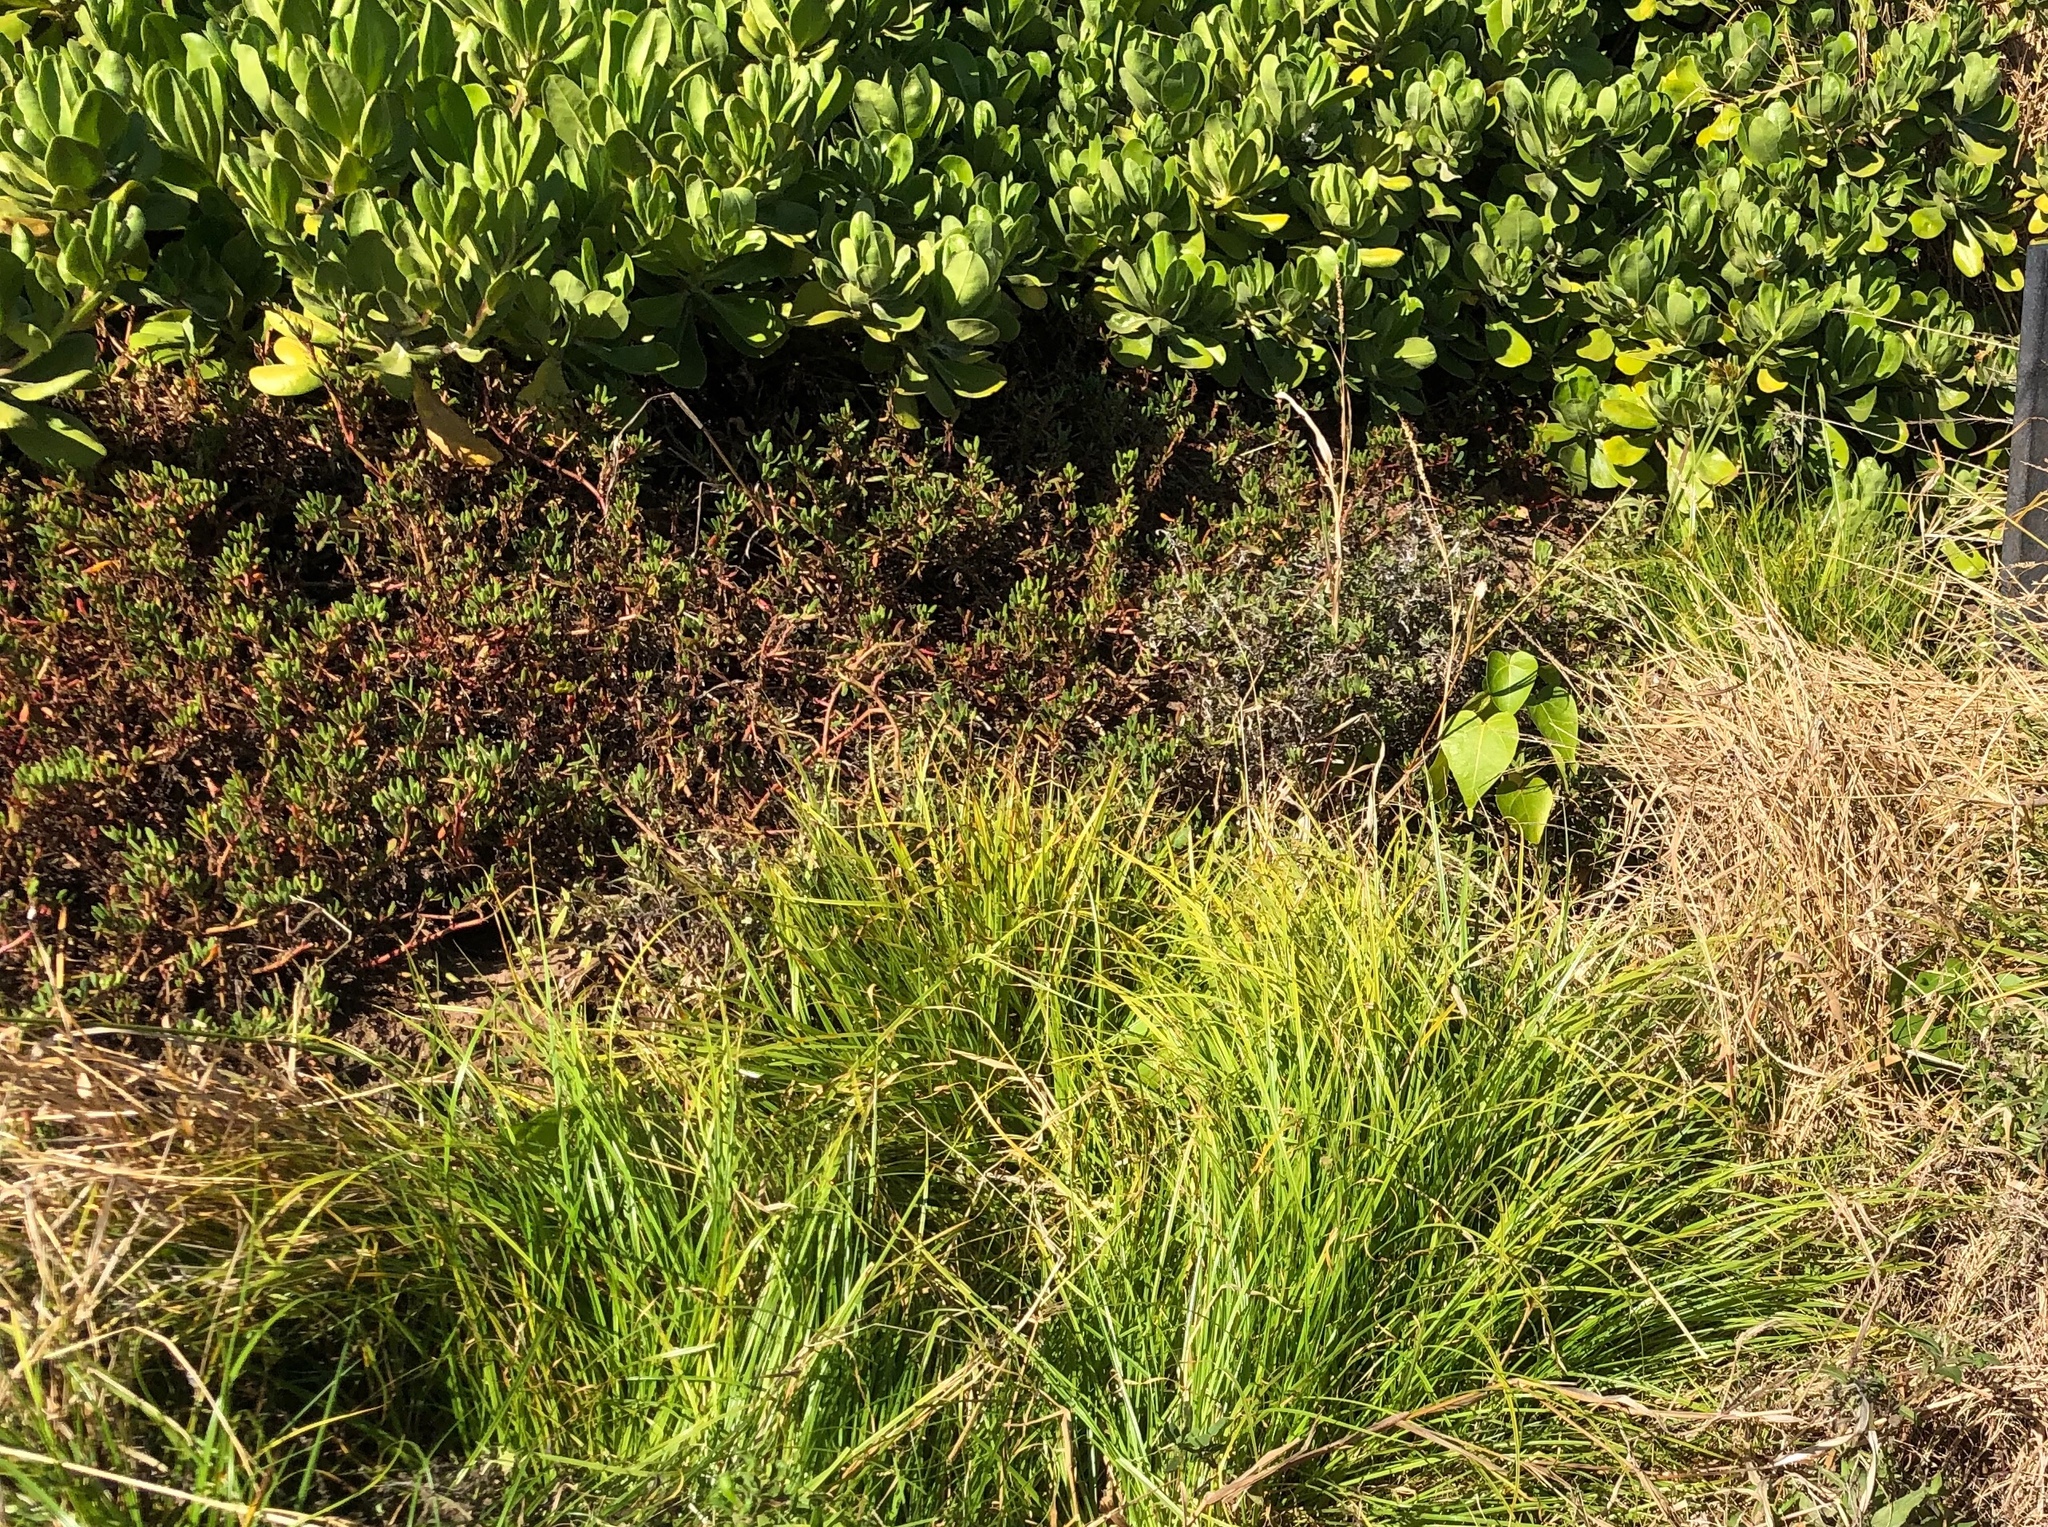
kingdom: Plantae
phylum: Tracheophyta
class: Liliopsida
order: Poales
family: Cyperaceae
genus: Cyperus
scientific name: Cyperus polystachyos
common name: Bunchy flat sedge
